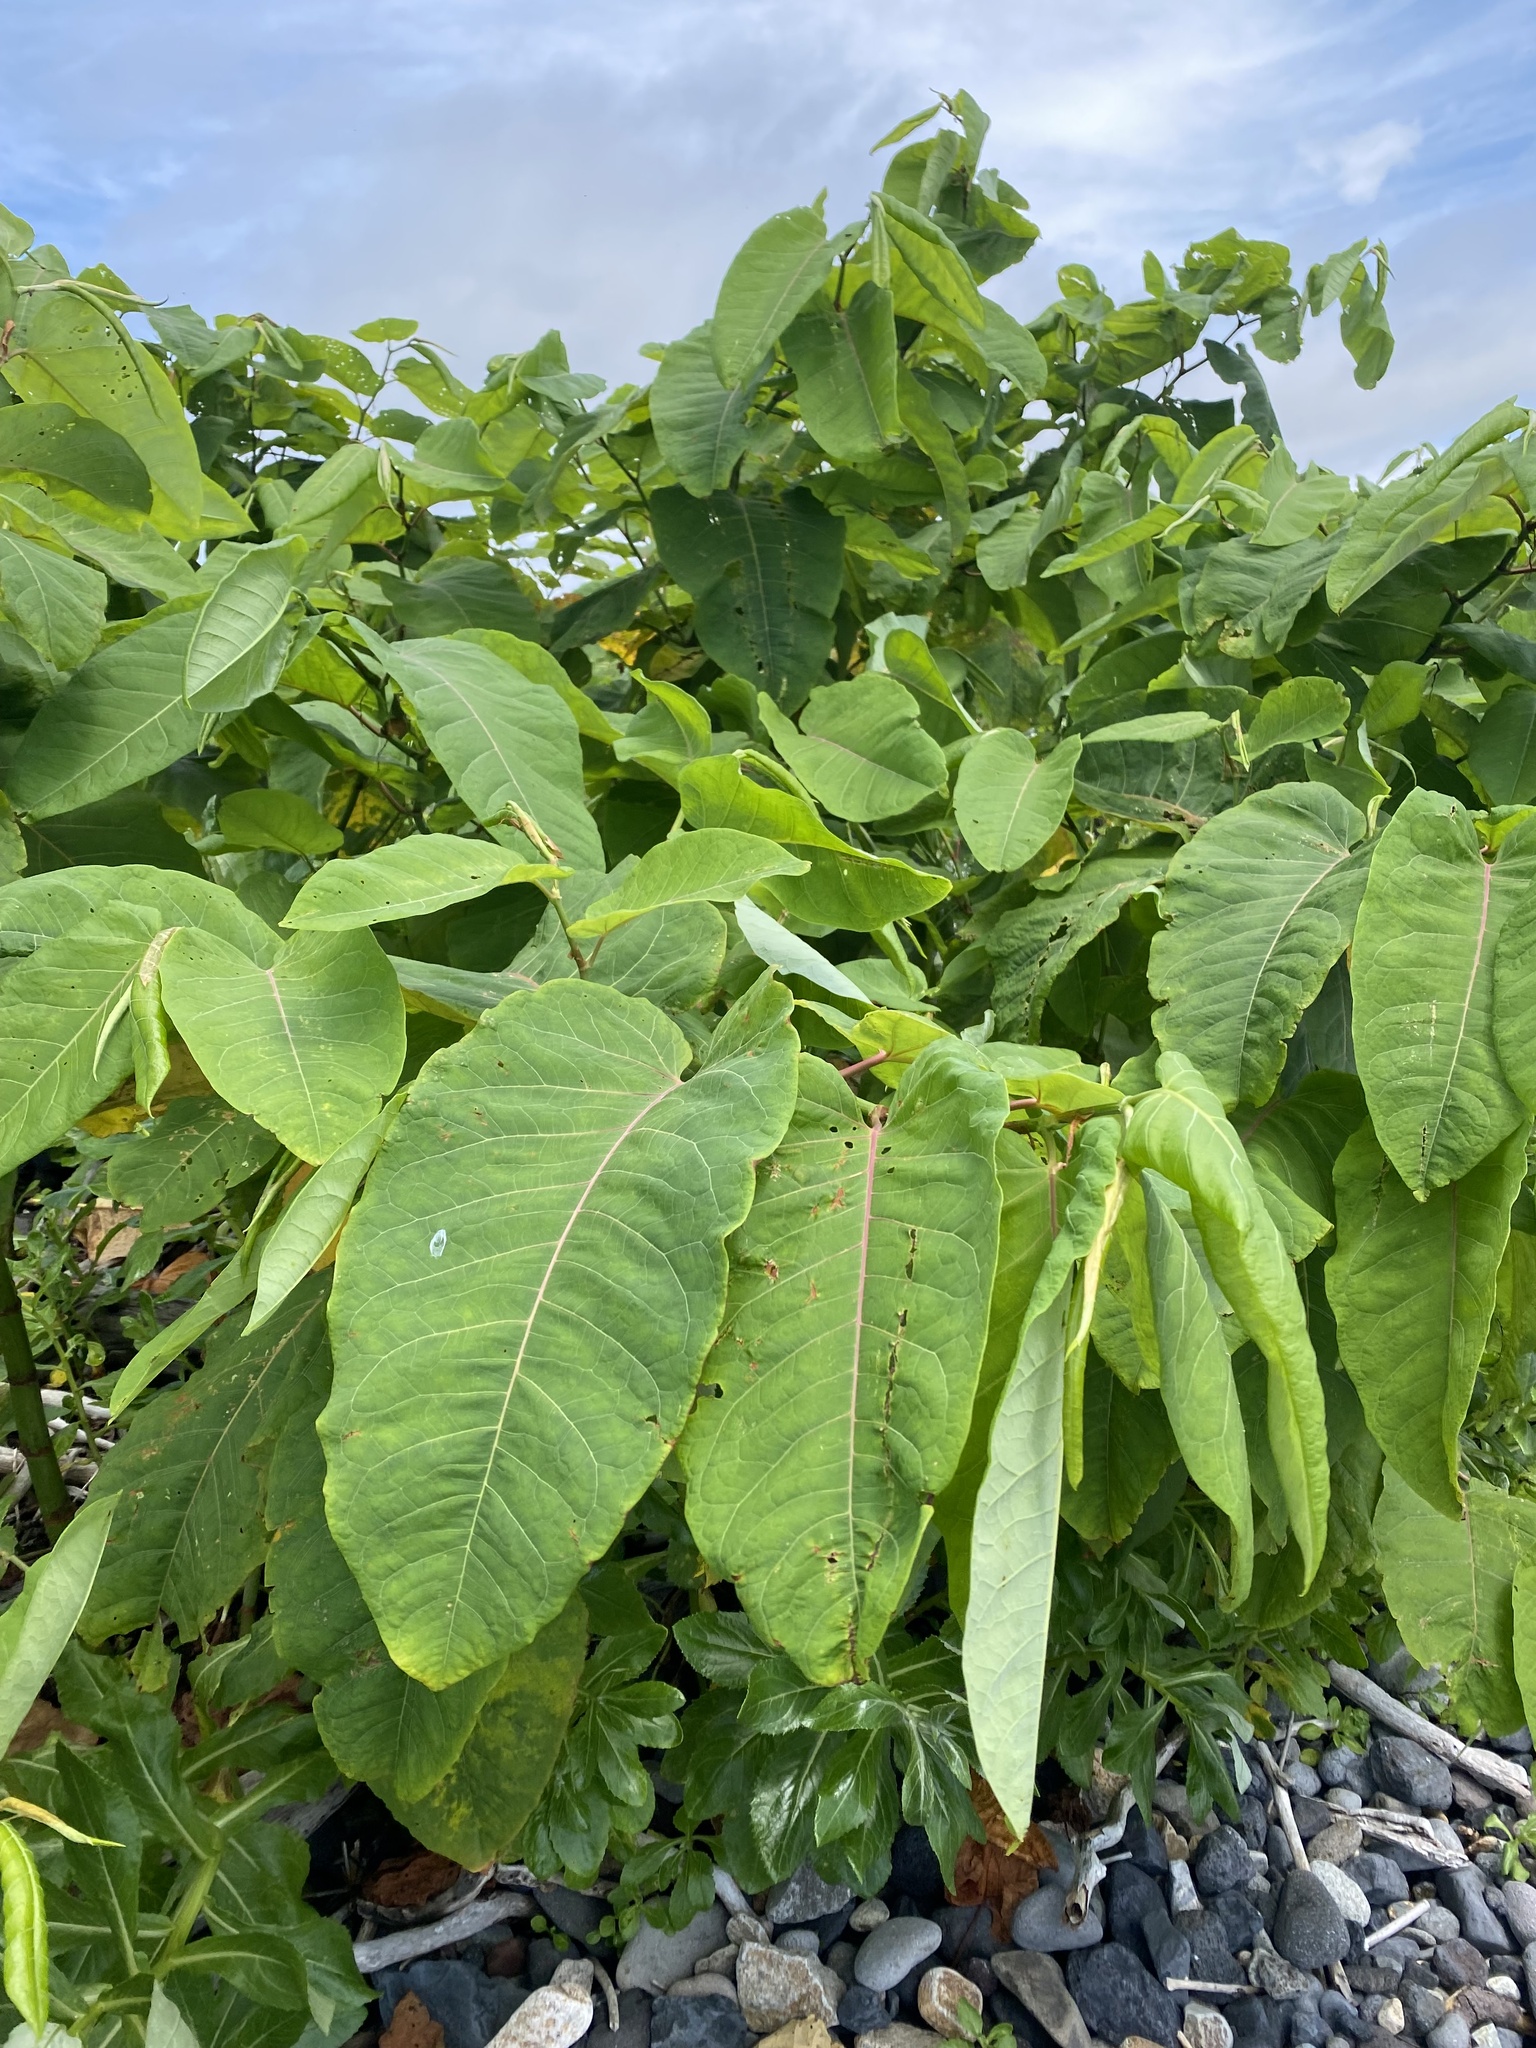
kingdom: Plantae
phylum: Tracheophyta
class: Magnoliopsida
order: Caryophyllales
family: Polygonaceae
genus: Reynoutria
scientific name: Reynoutria sachalinensis
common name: Giant knotweed
